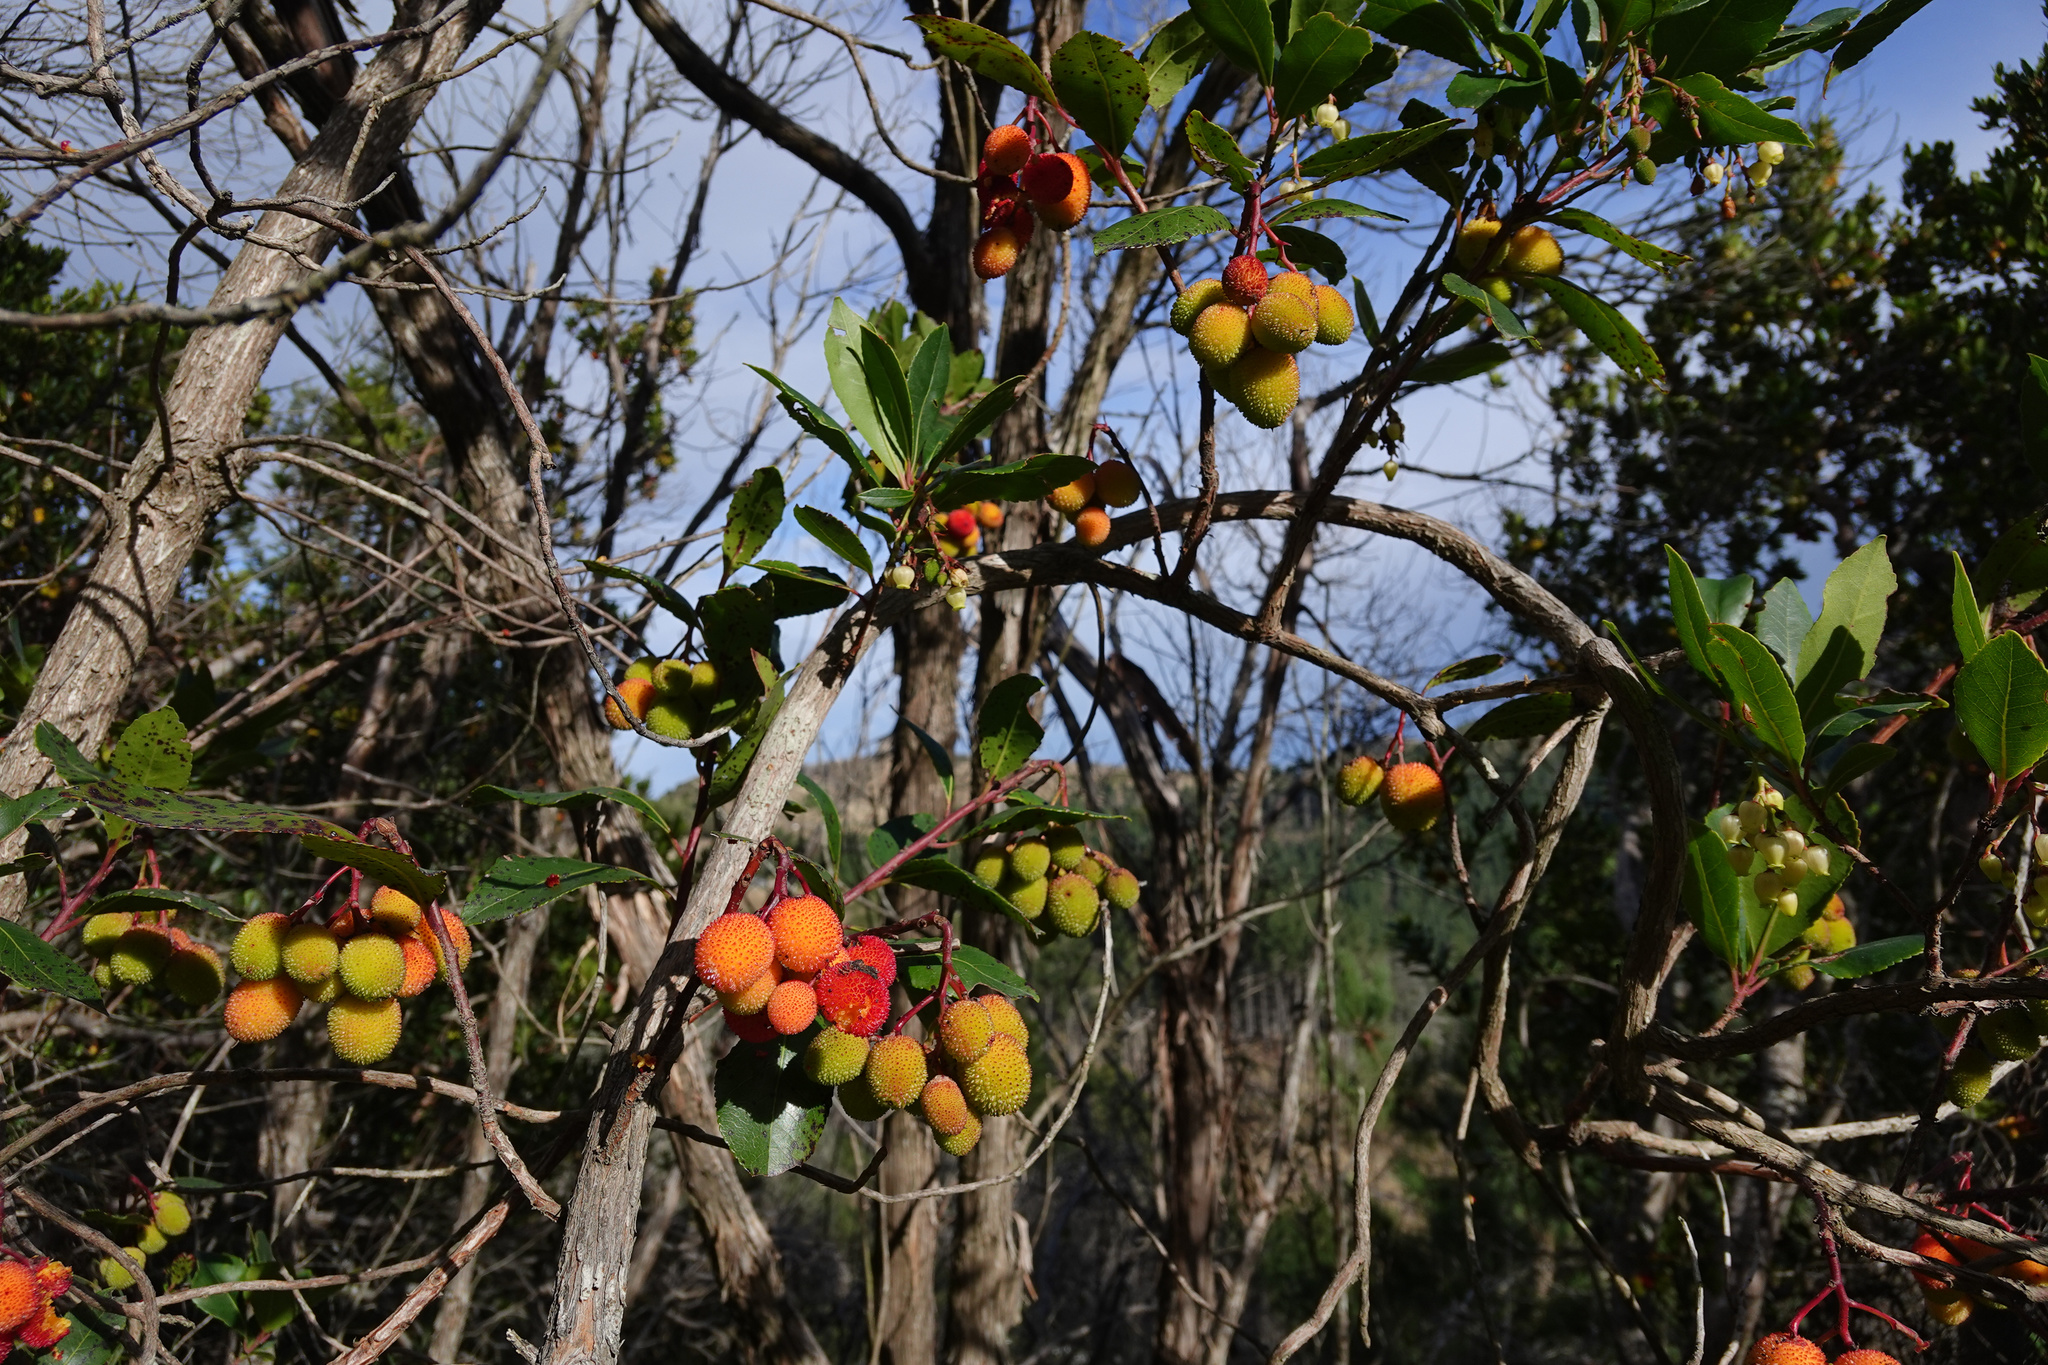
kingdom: Plantae
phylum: Tracheophyta
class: Magnoliopsida
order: Ericales
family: Ericaceae
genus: Arbutus
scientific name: Arbutus unedo
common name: Strawberry-tree
